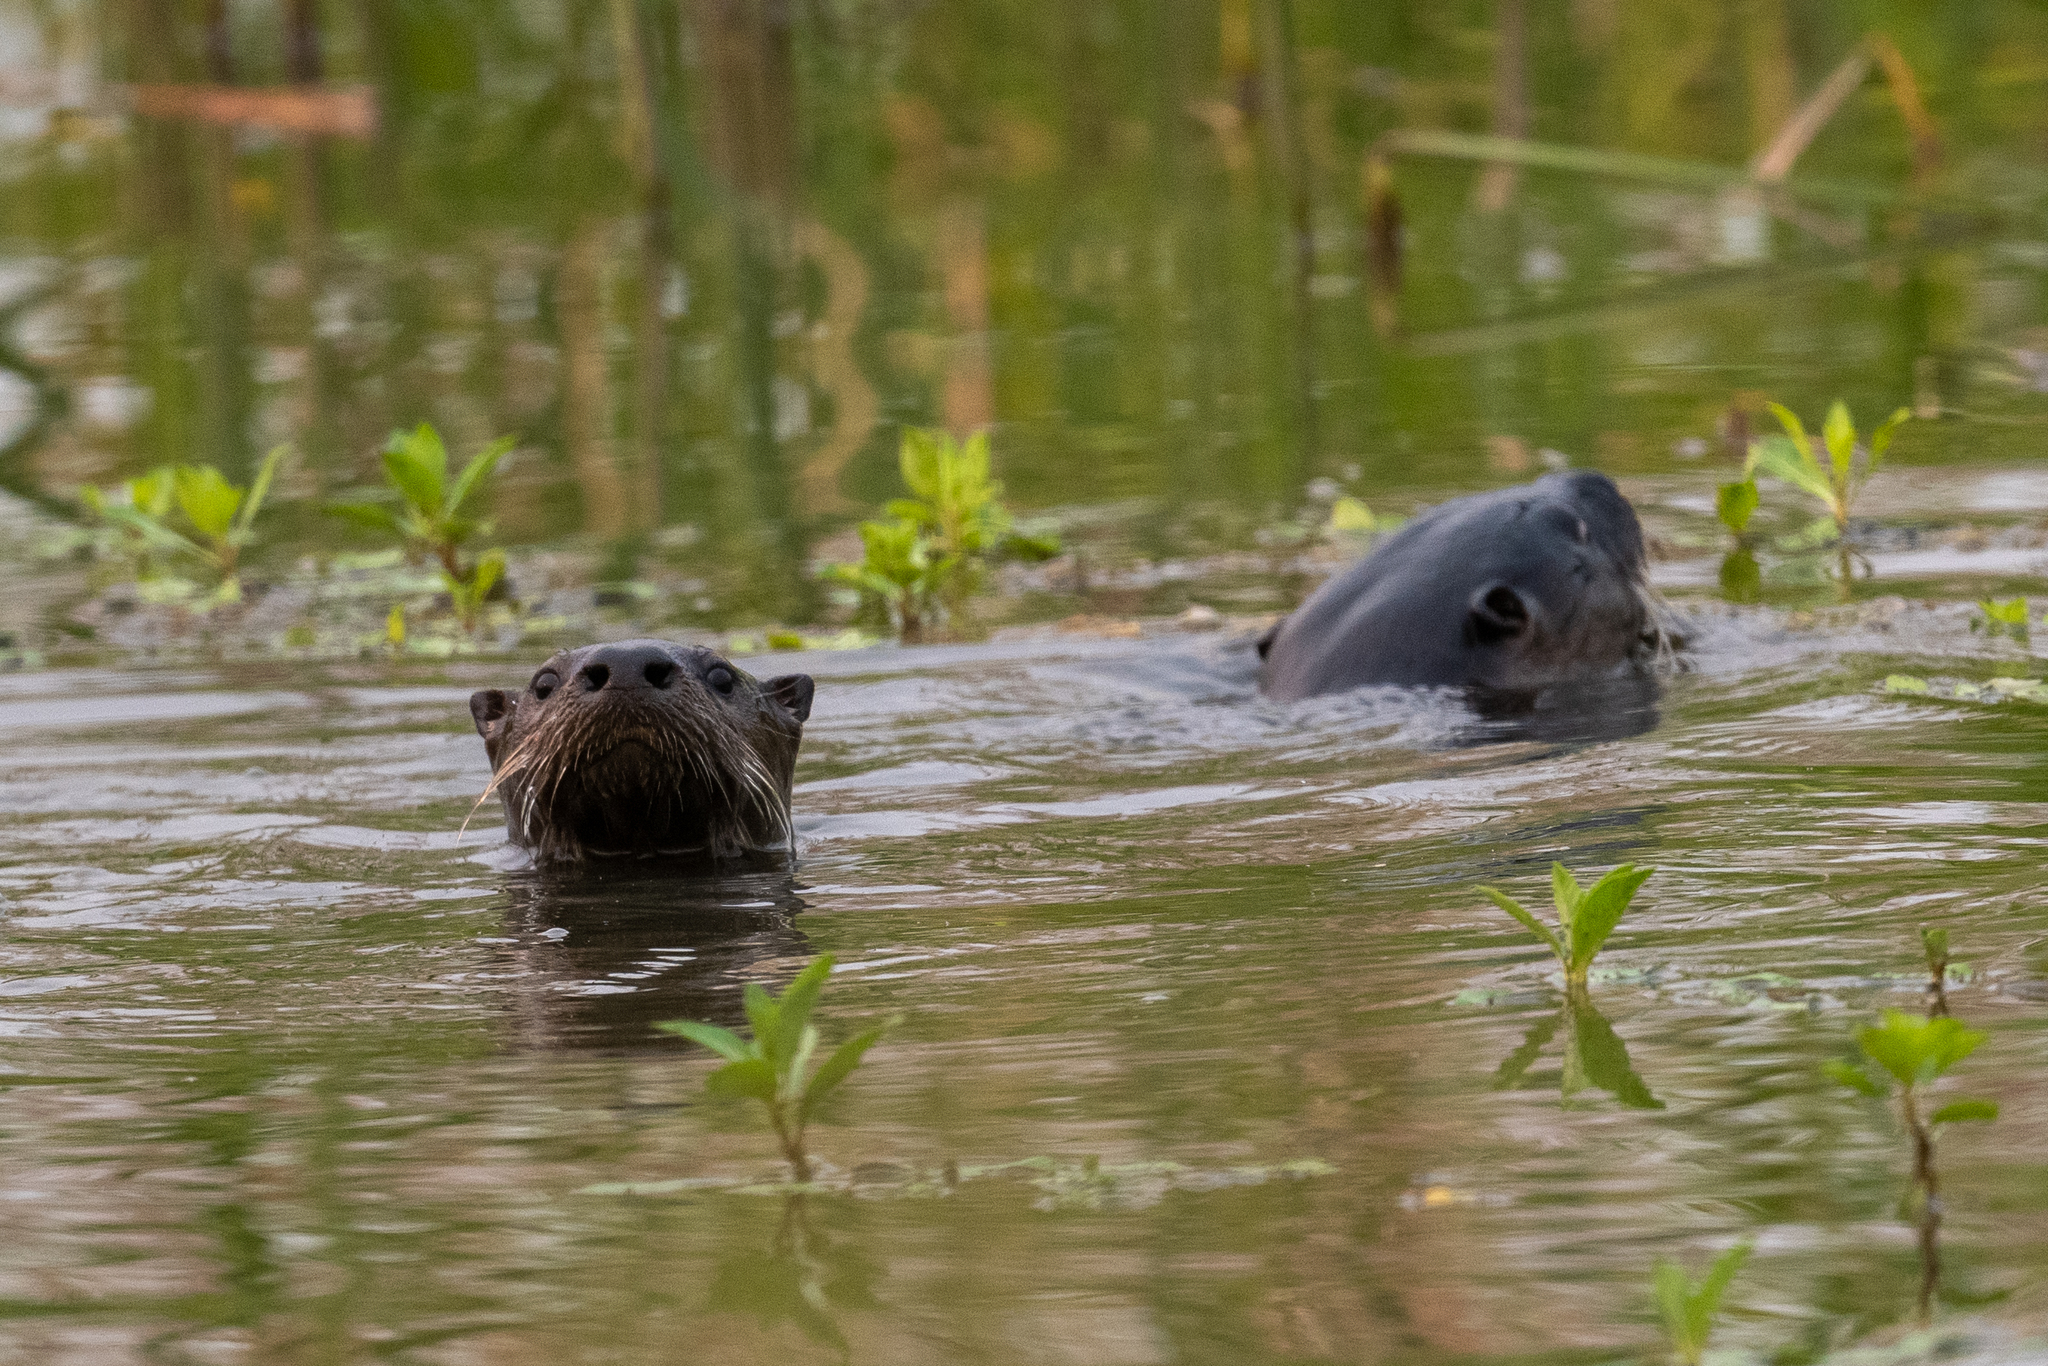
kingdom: Animalia
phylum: Chordata
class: Mammalia
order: Carnivora
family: Mustelidae
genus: Lontra
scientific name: Lontra canadensis
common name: North american river otter
